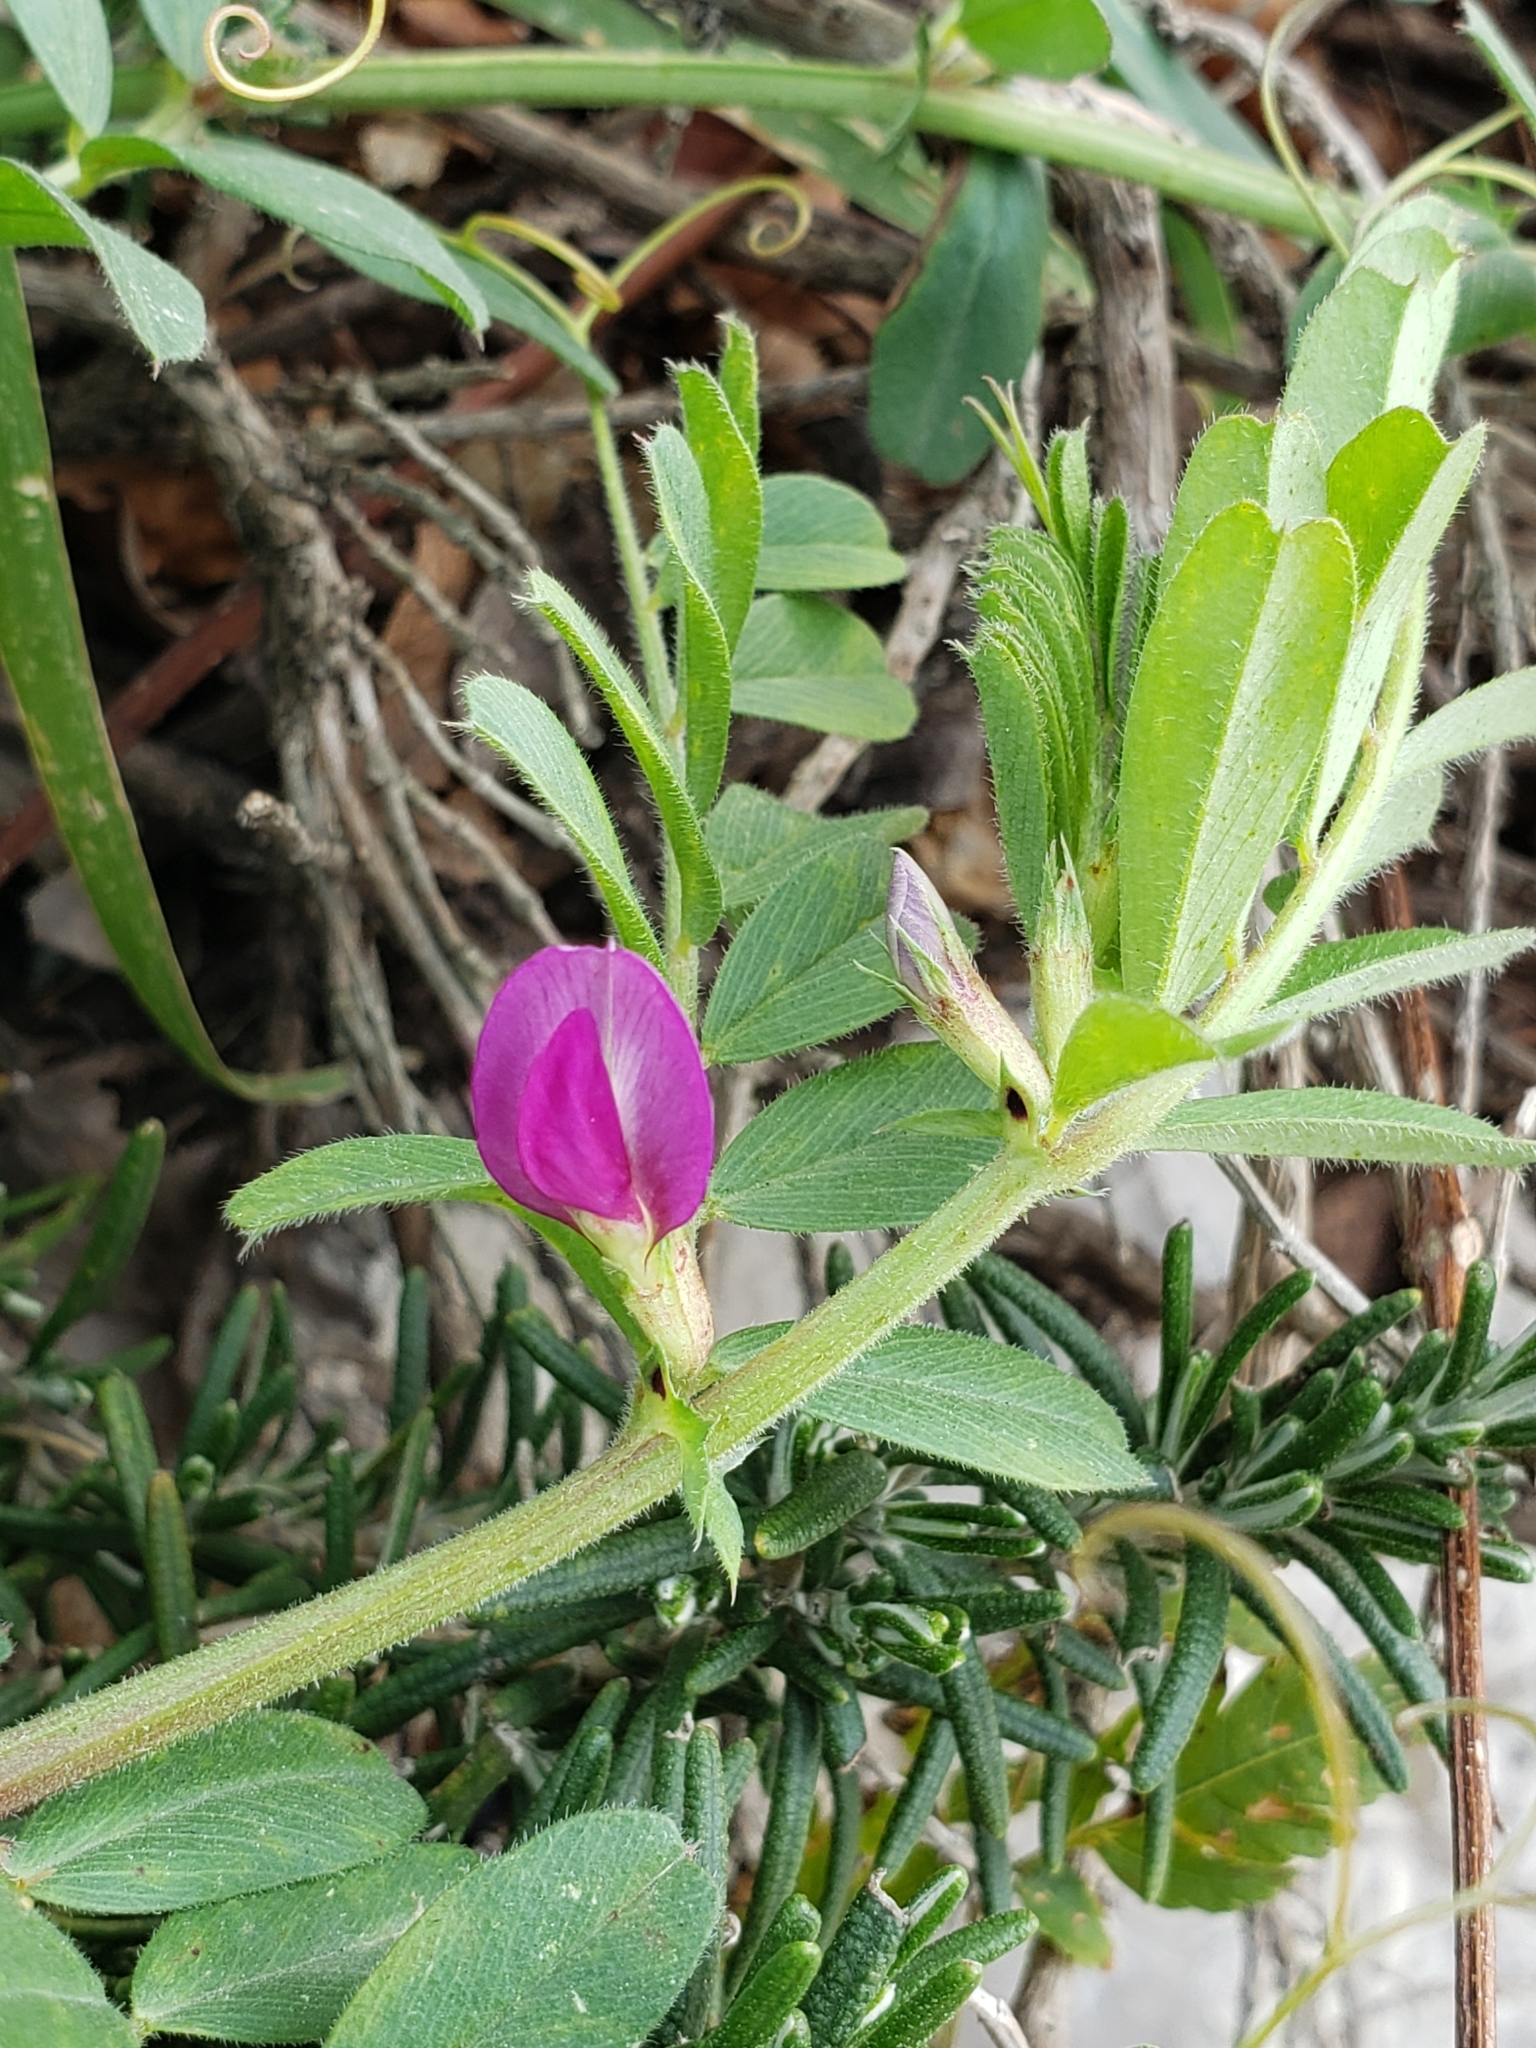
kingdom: Plantae
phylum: Tracheophyta
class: Magnoliopsida
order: Fabales
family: Fabaceae
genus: Vicia
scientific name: Vicia sativa
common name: Garden vetch
